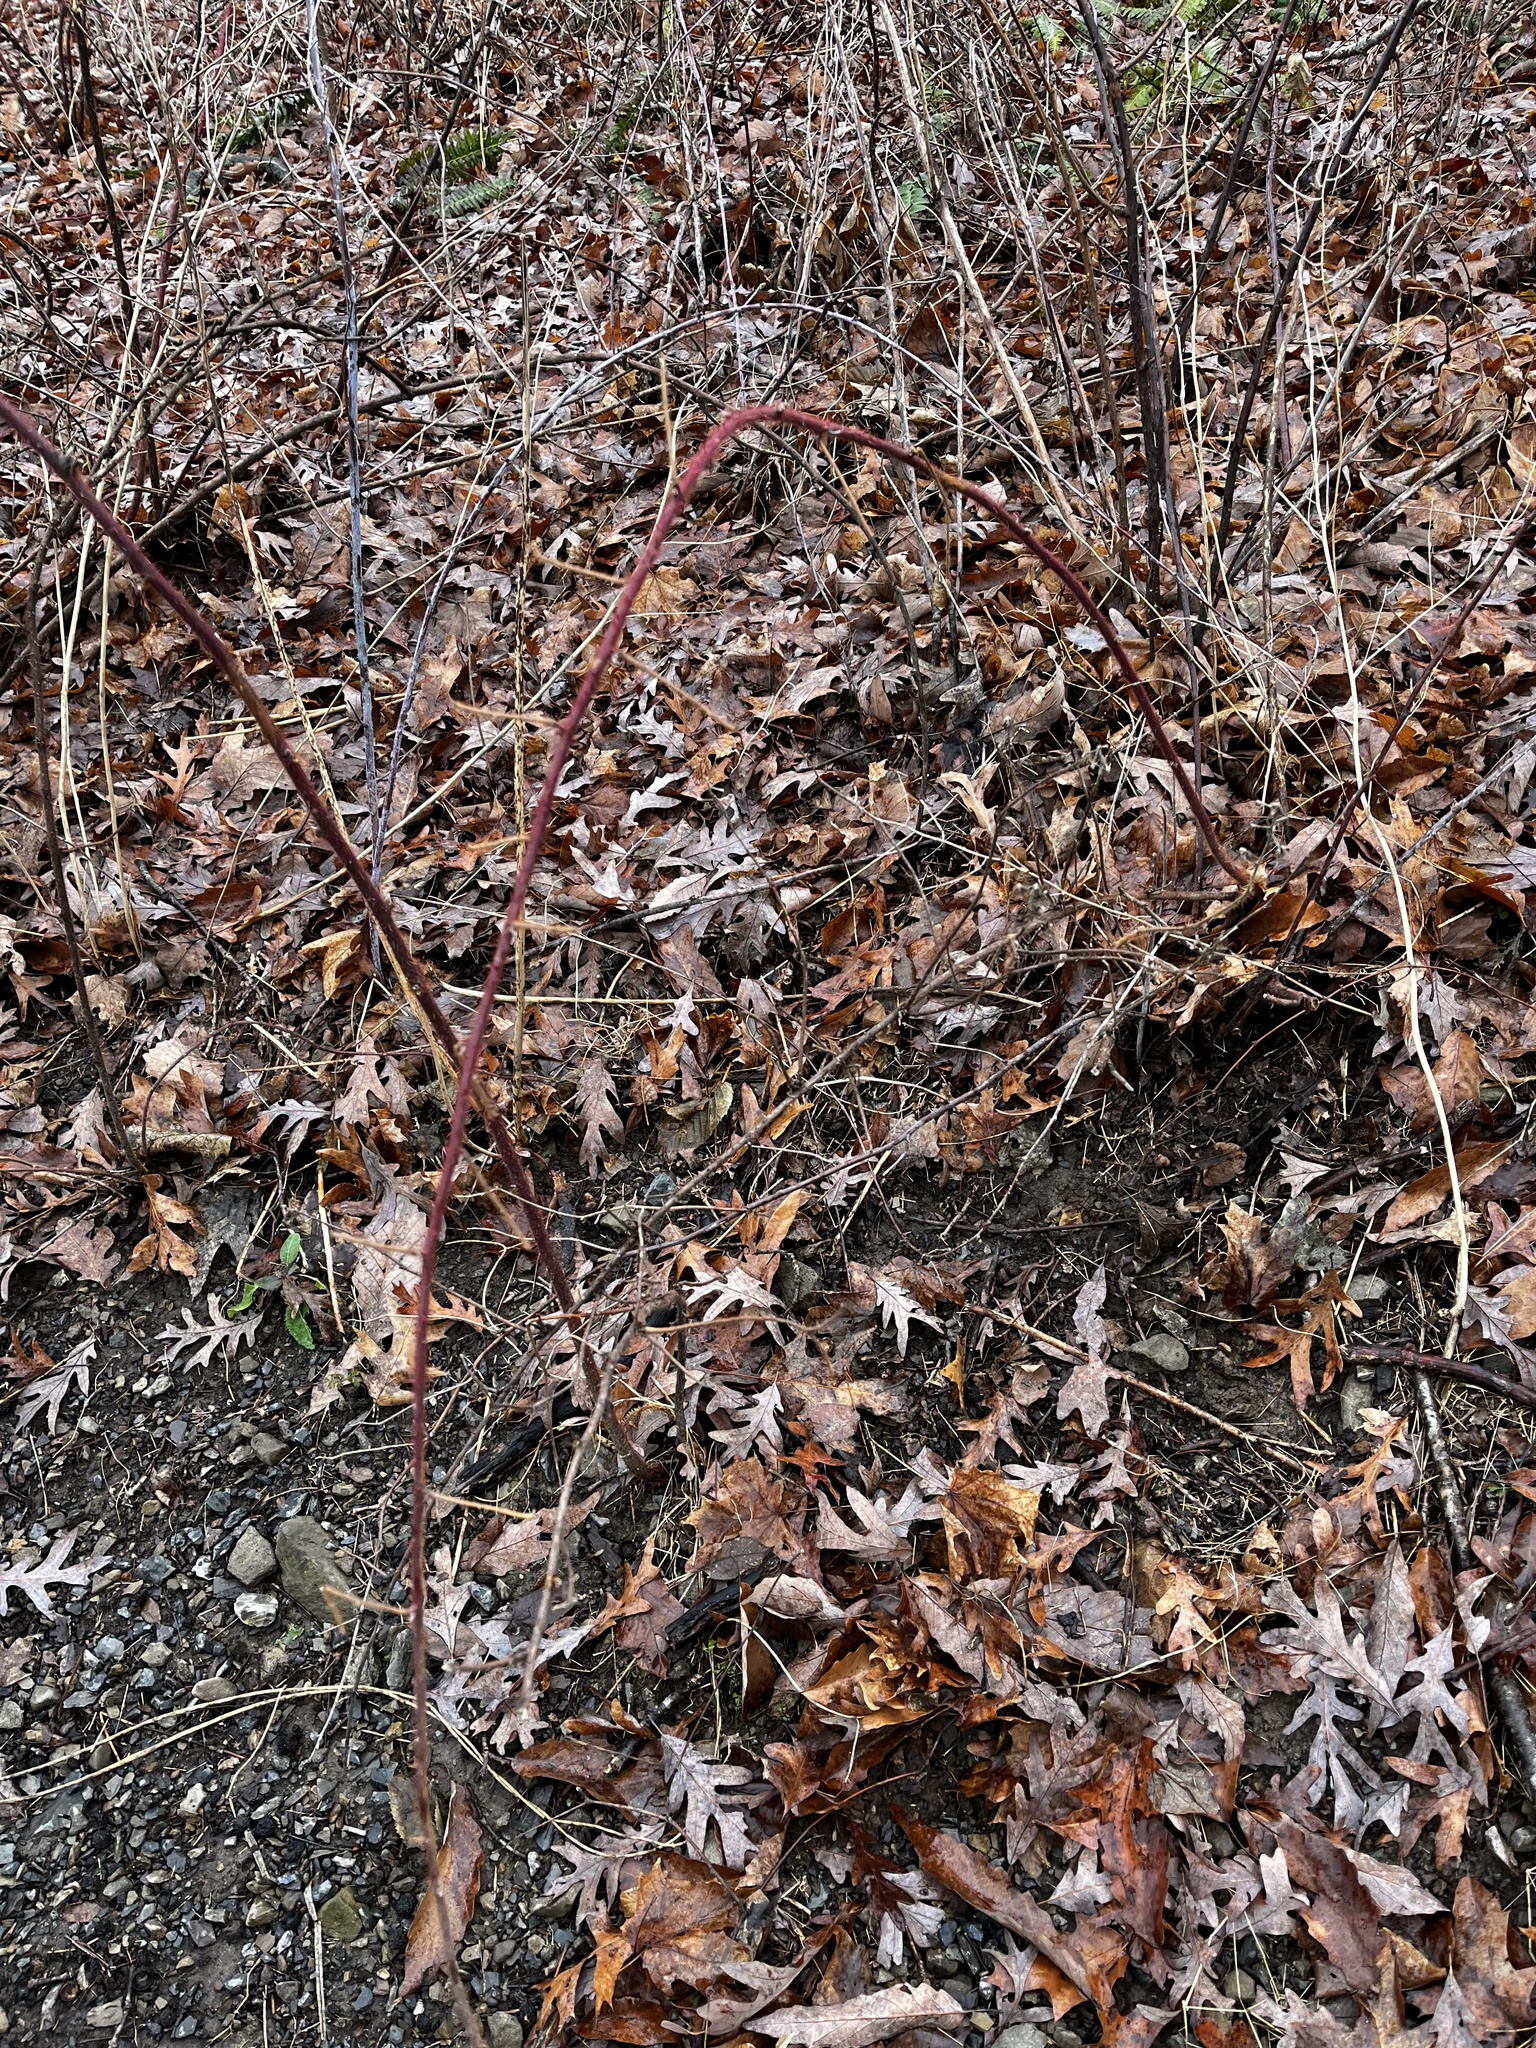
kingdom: Plantae
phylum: Tracheophyta
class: Magnoliopsida
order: Rosales
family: Rosaceae
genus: Rubus
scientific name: Rubus phoenicolasius
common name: Japanese wineberry
